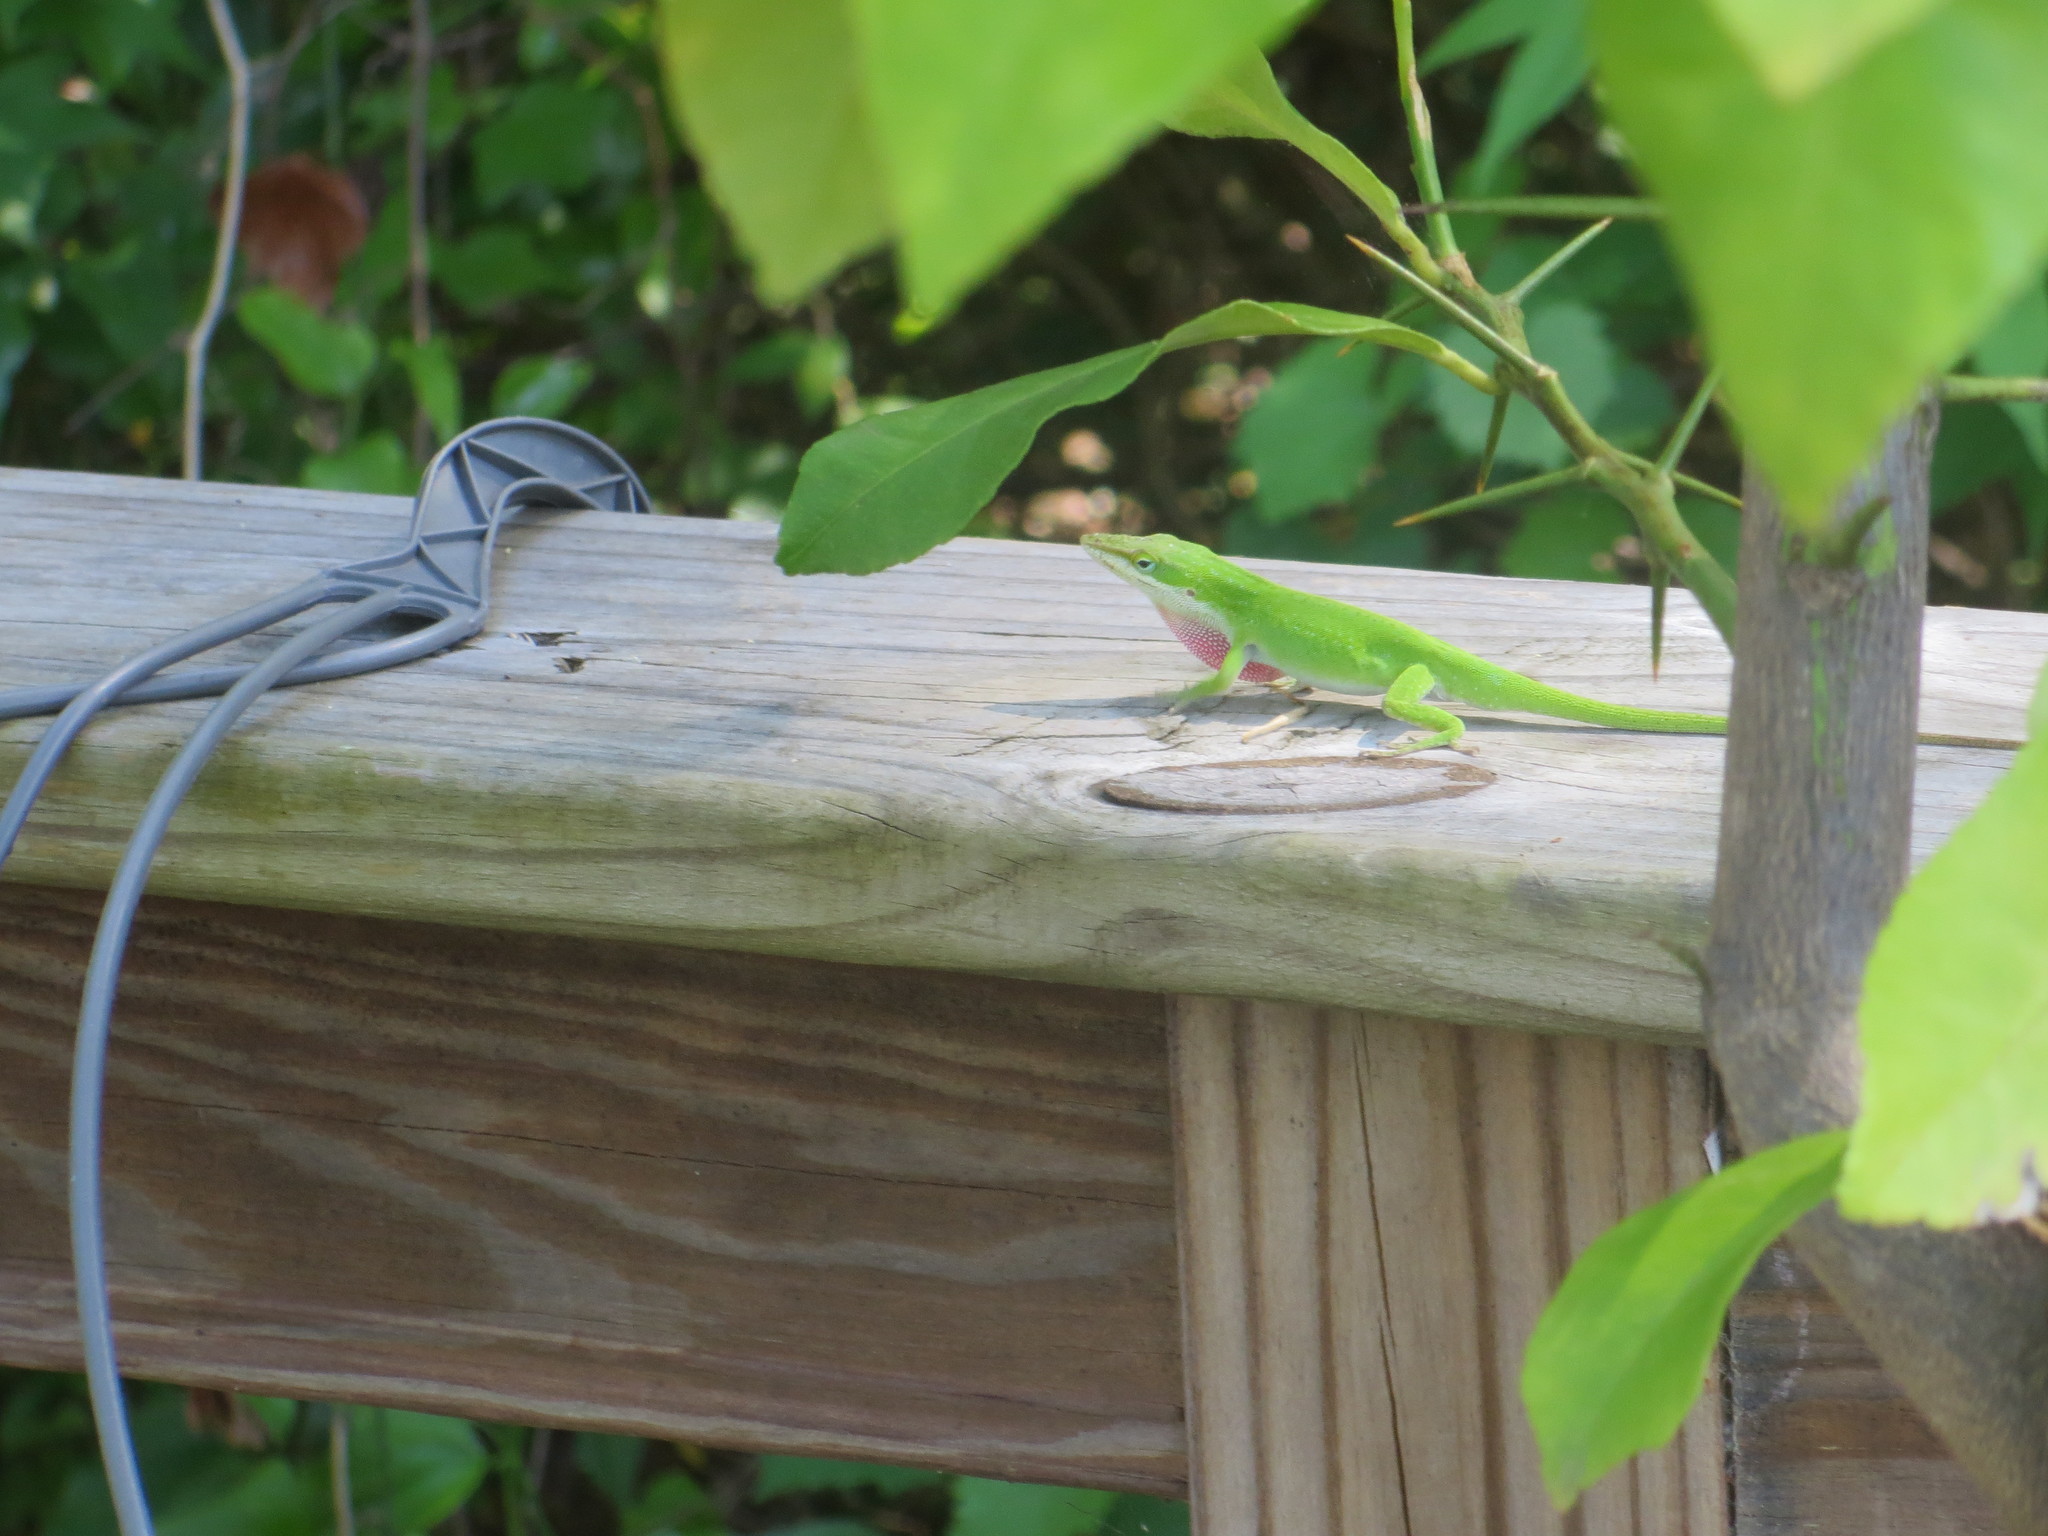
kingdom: Animalia
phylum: Chordata
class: Squamata
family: Dactyloidae
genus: Anolis
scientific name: Anolis carolinensis
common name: Green anole
